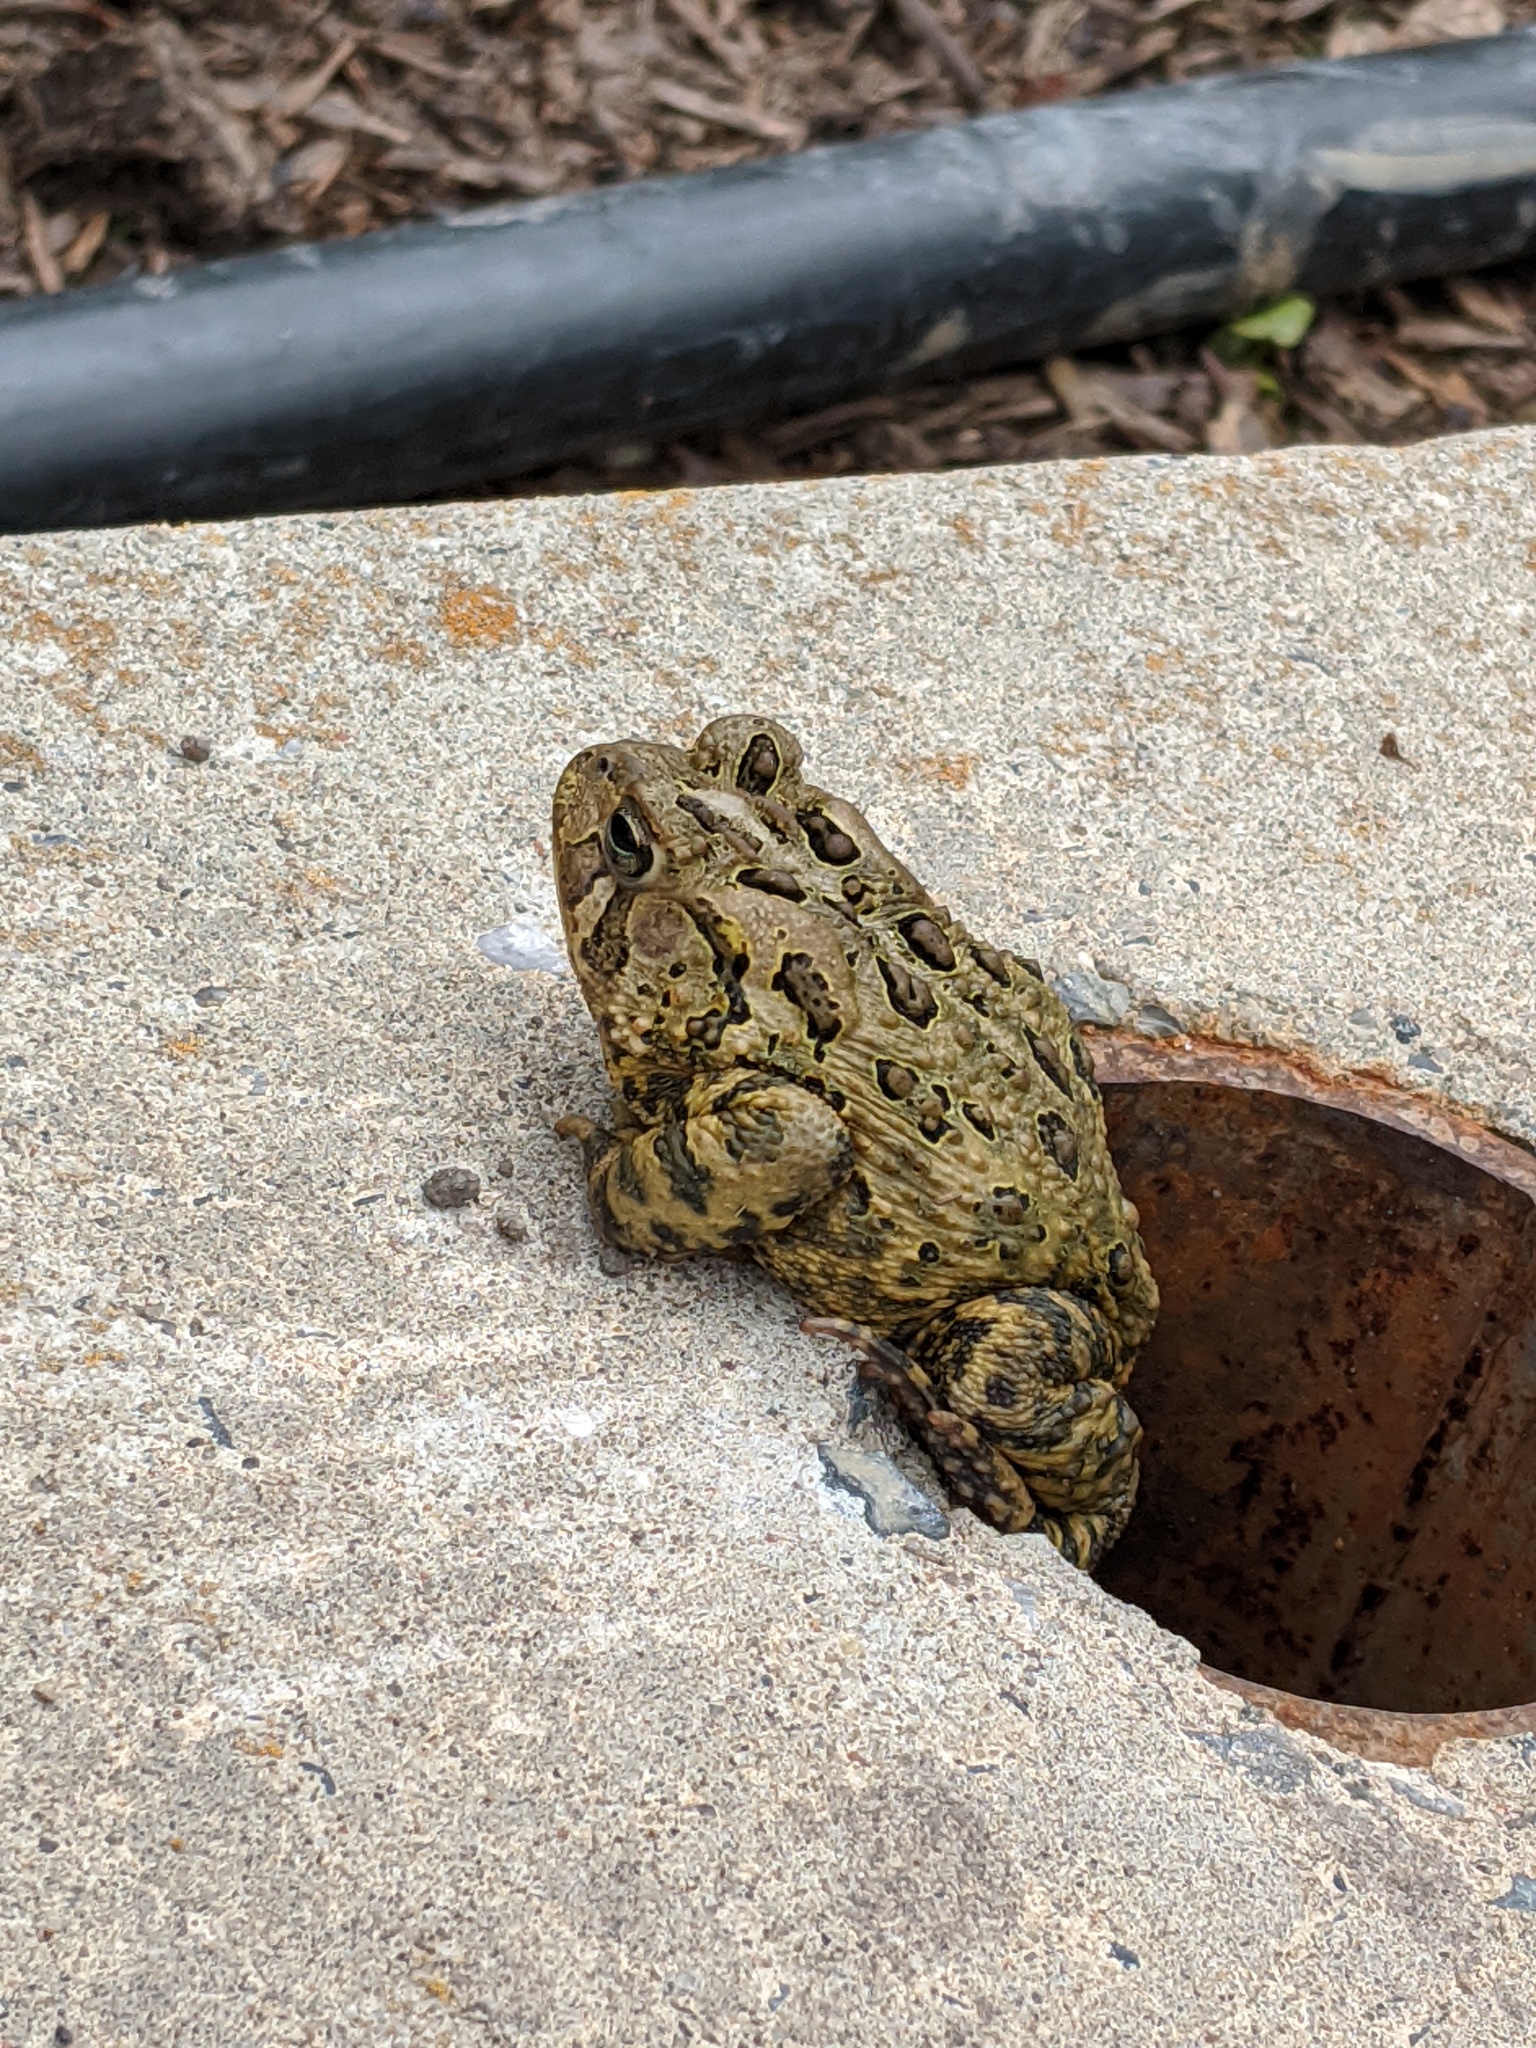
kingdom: Animalia
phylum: Chordata
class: Amphibia
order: Anura
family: Bufonidae
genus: Anaxyrus
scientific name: Anaxyrus americanus
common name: American toad
